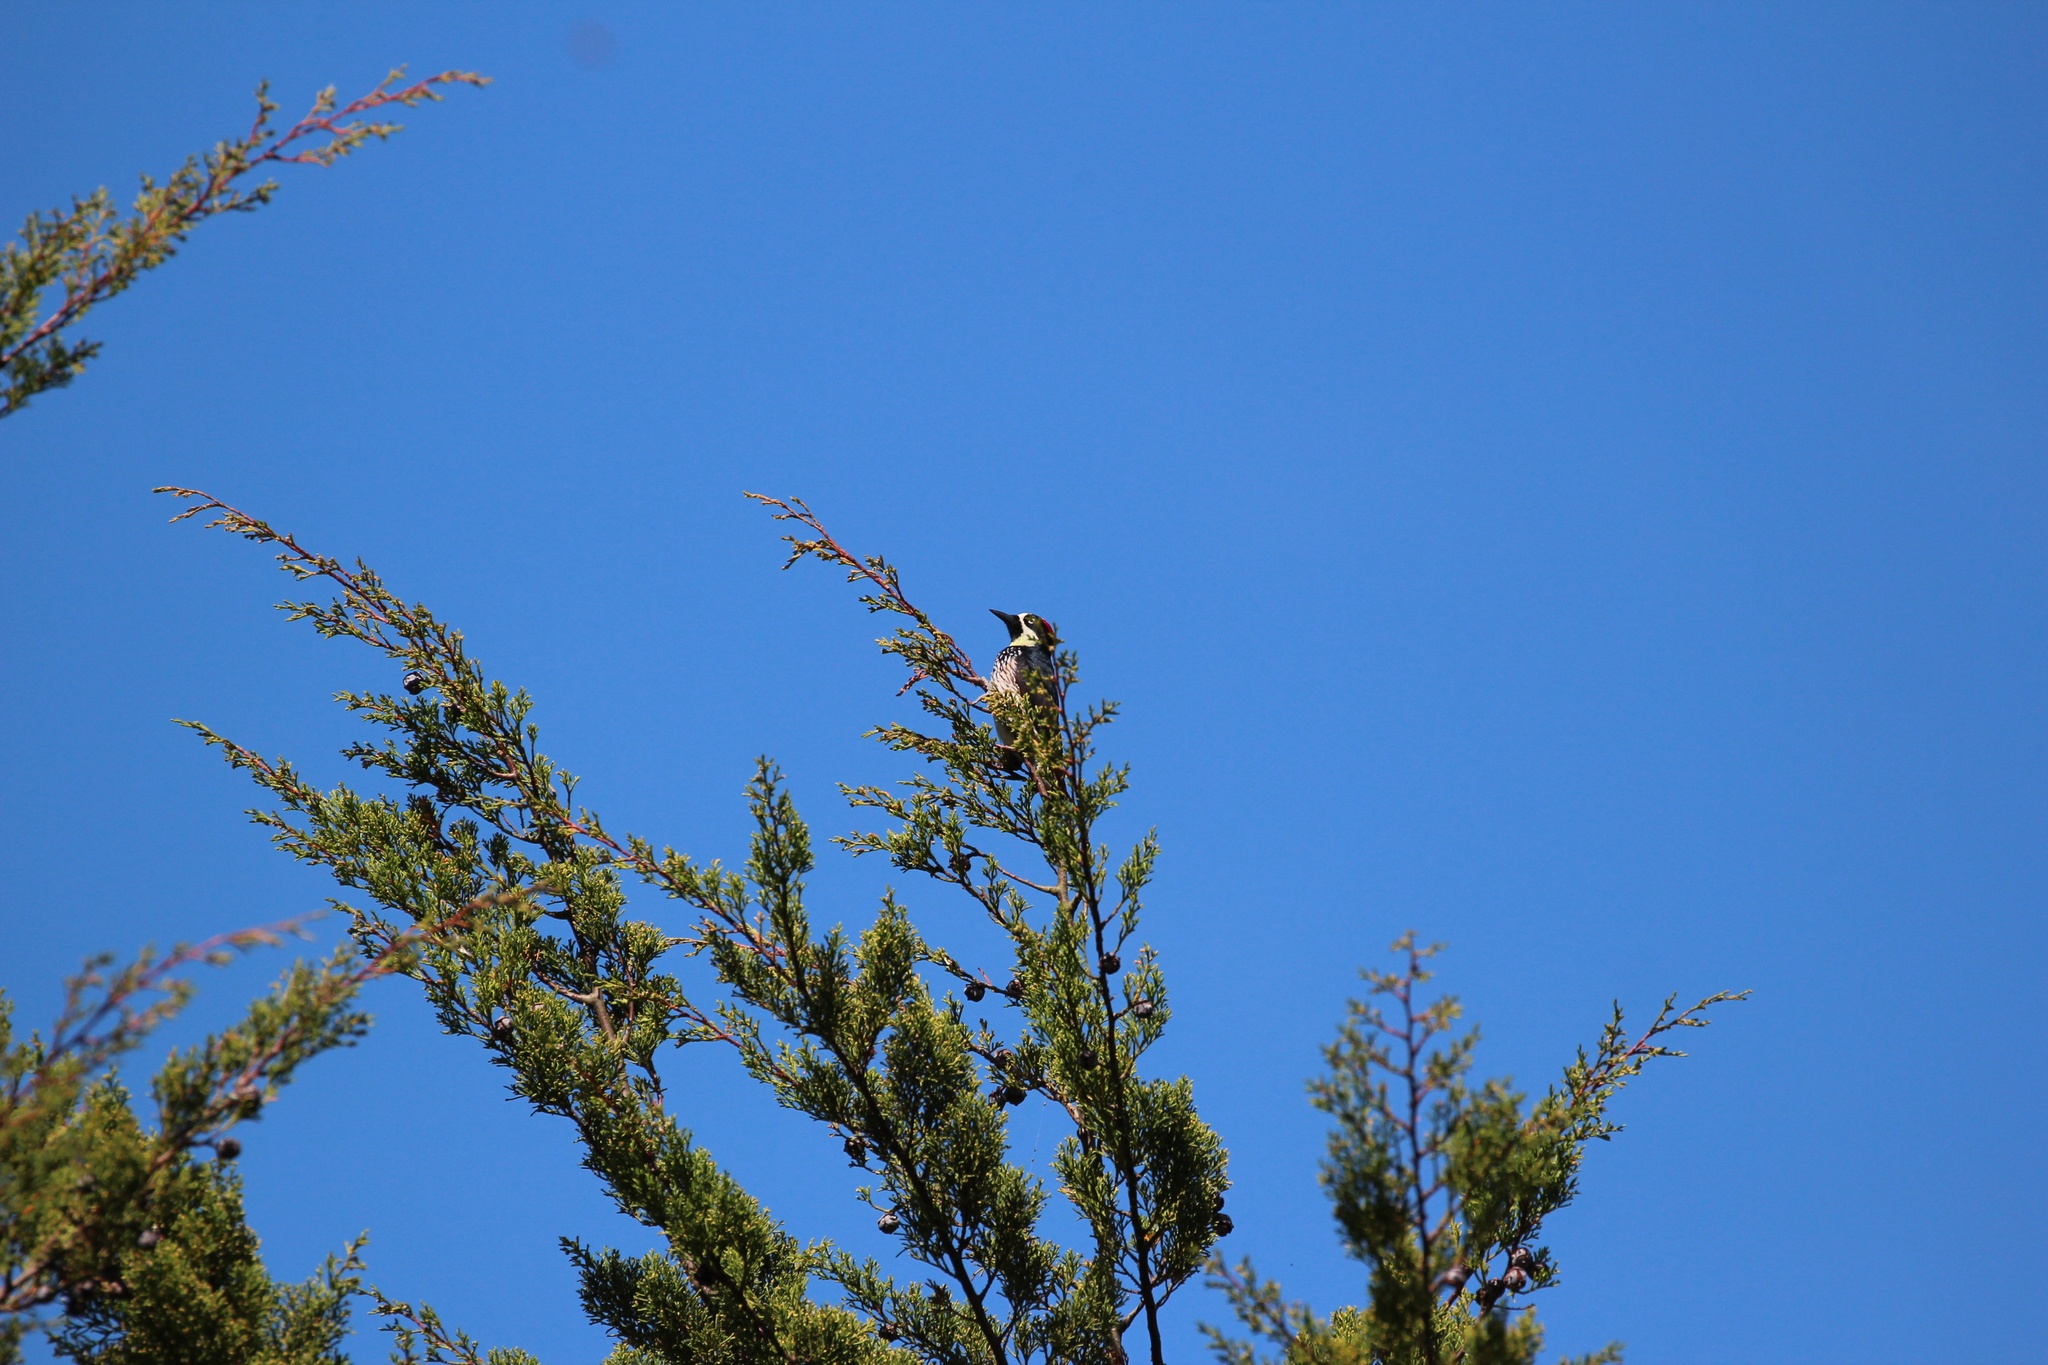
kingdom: Animalia
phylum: Chordata
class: Aves
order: Piciformes
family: Picidae
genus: Melanerpes
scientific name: Melanerpes formicivorus
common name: Acorn woodpecker
